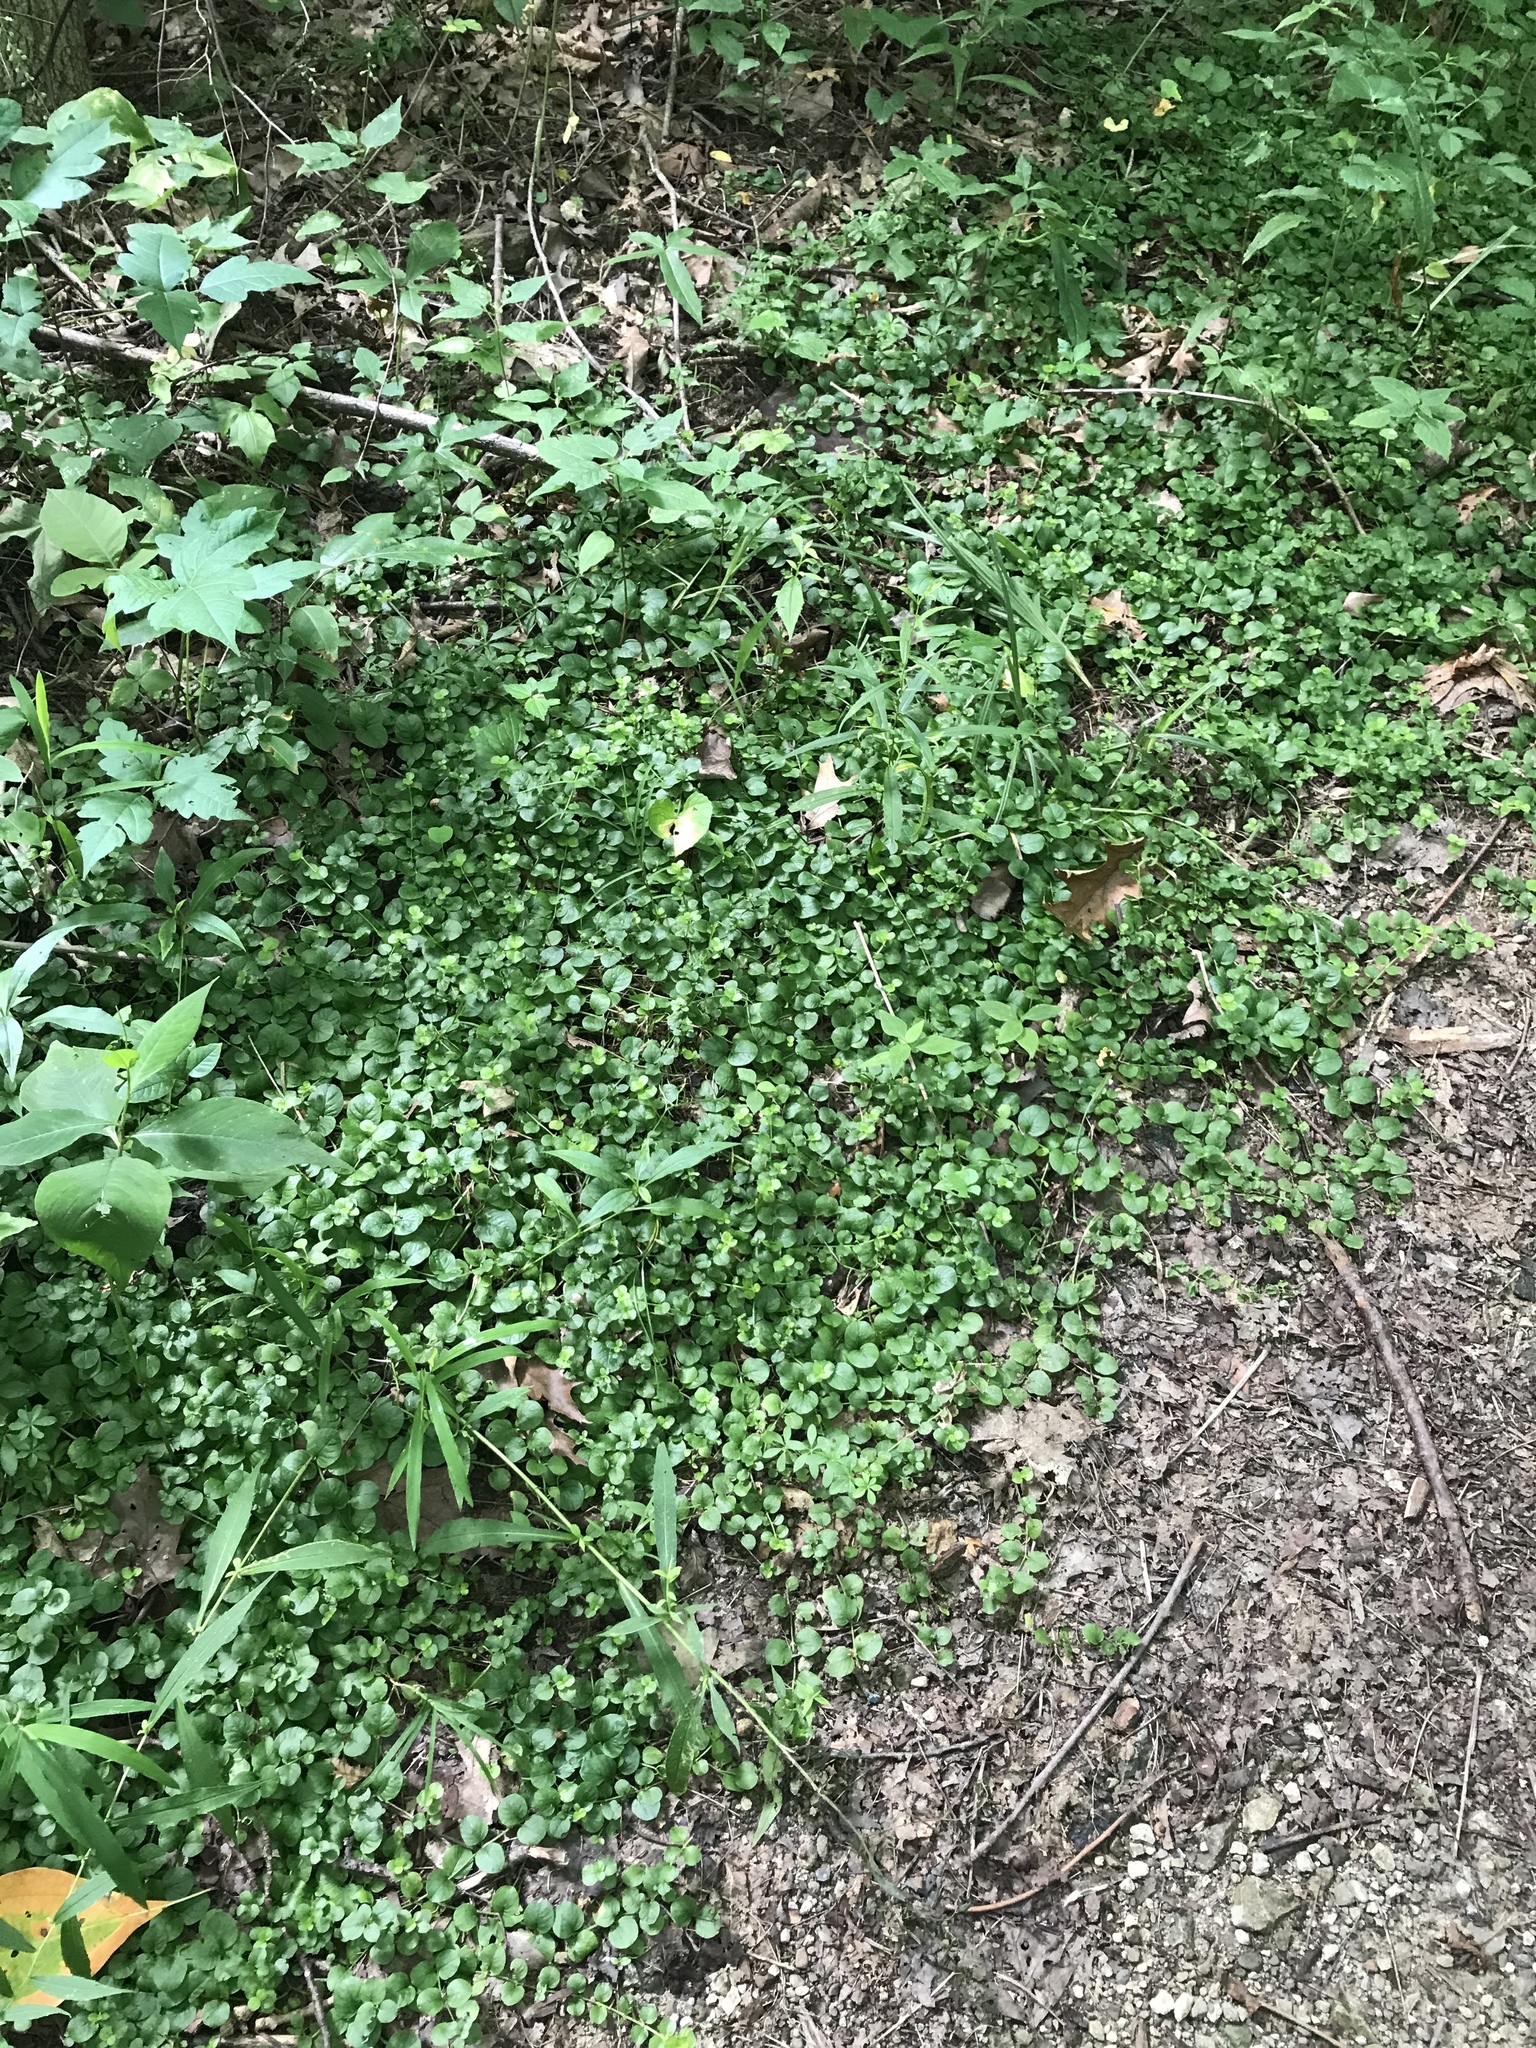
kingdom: Plantae
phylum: Tracheophyta
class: Magnoliopsida
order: Ericales
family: Primulaceae
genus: Lysimachia
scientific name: Lysimachia nummularia
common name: Moneywort
